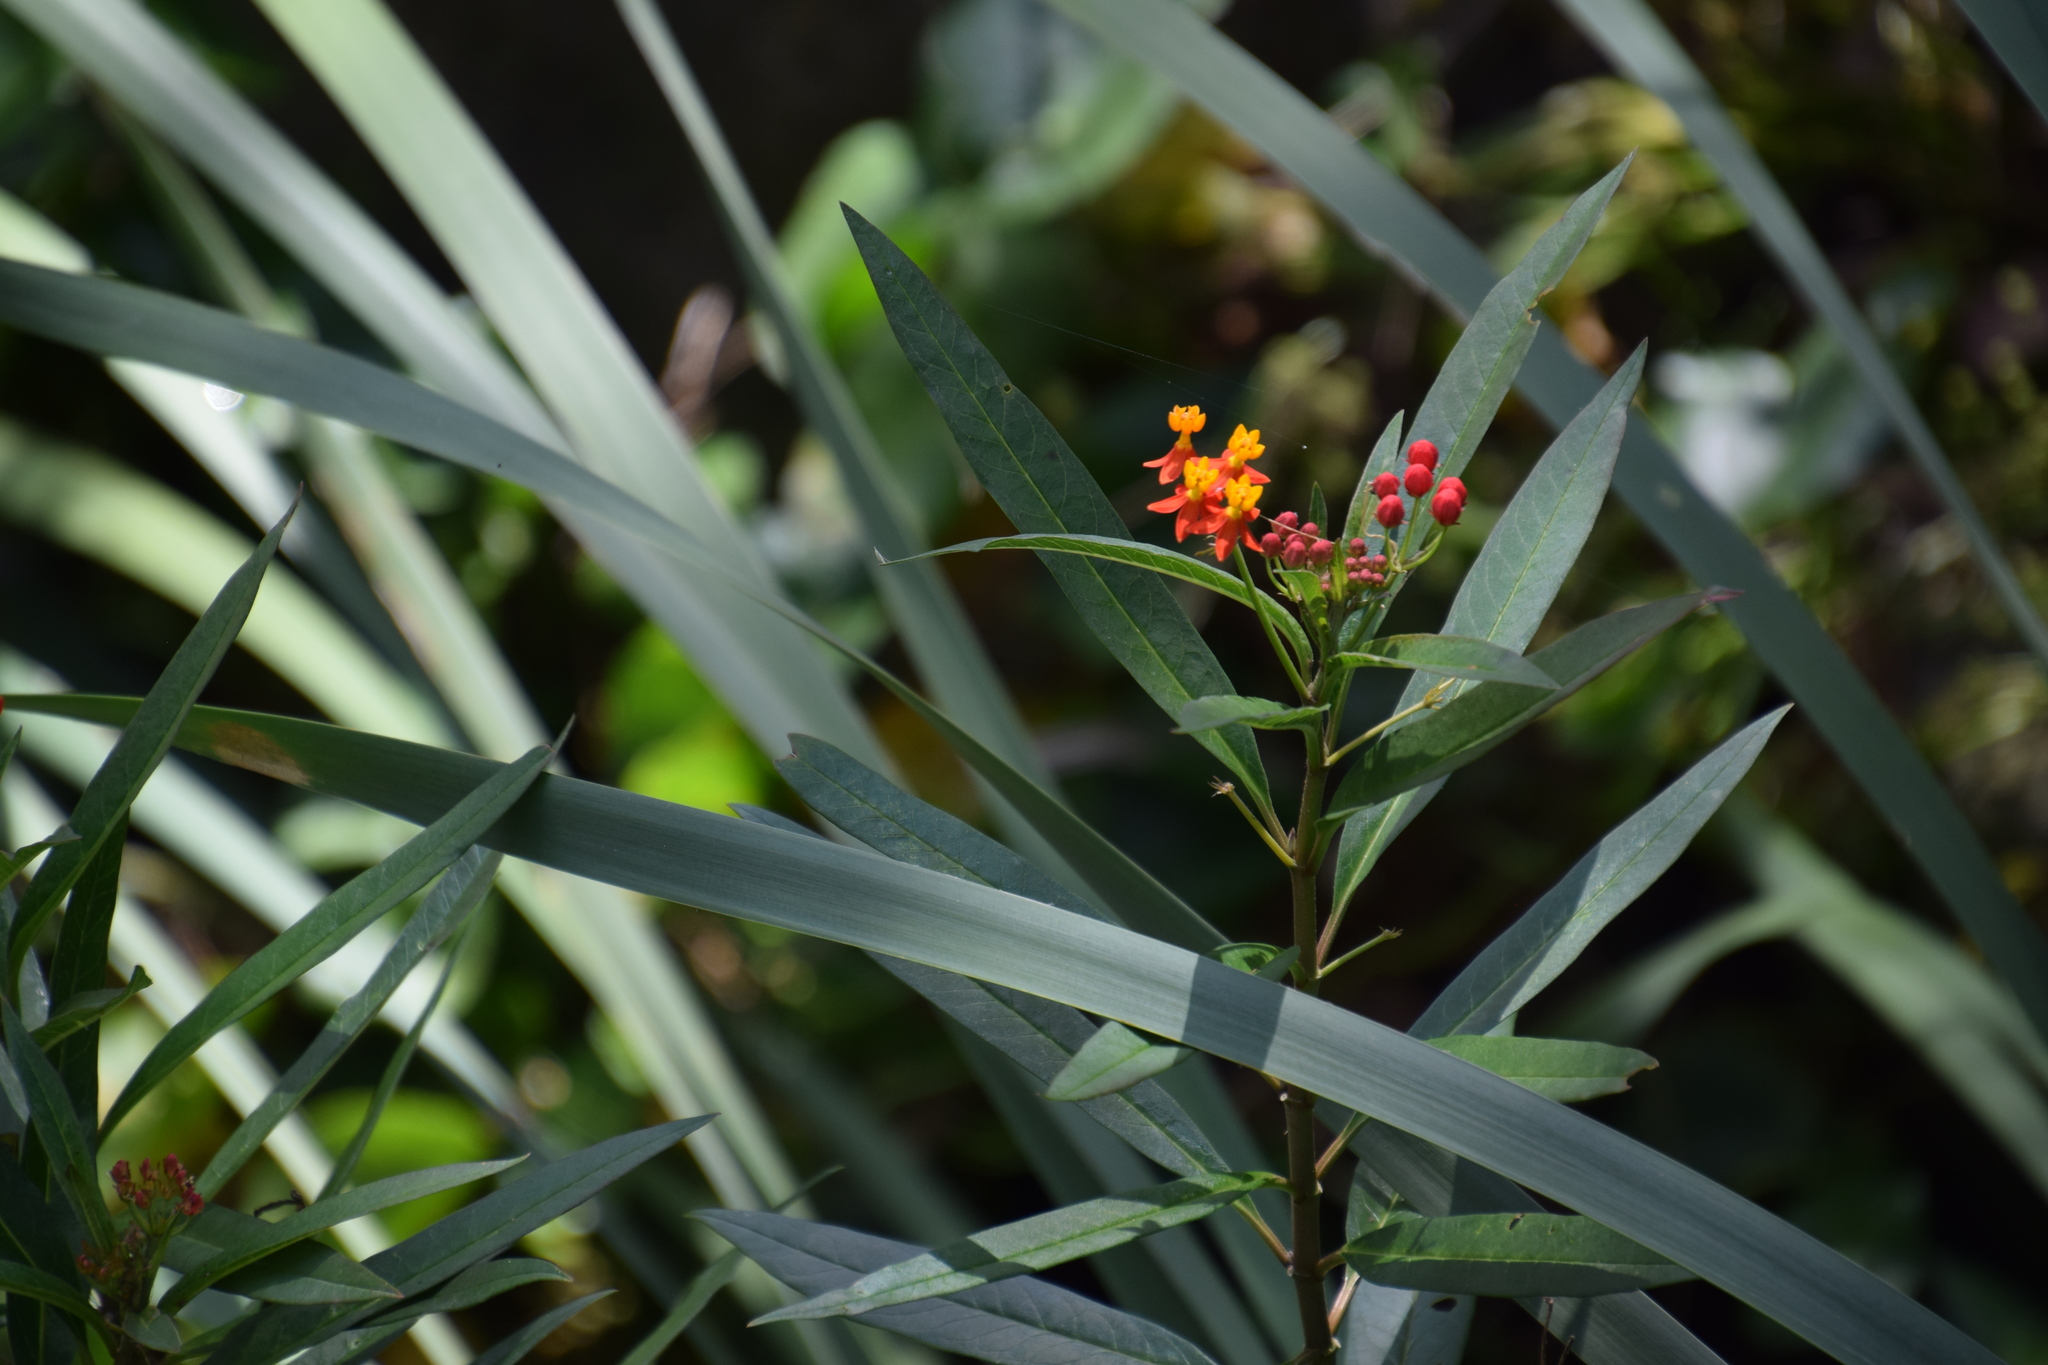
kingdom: Plantae
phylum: Tracheophyta
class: Magnoliopsida
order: Gentianales
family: Apocynaceae
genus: Asclepias
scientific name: Asclepias curassavica
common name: Bloodflower
